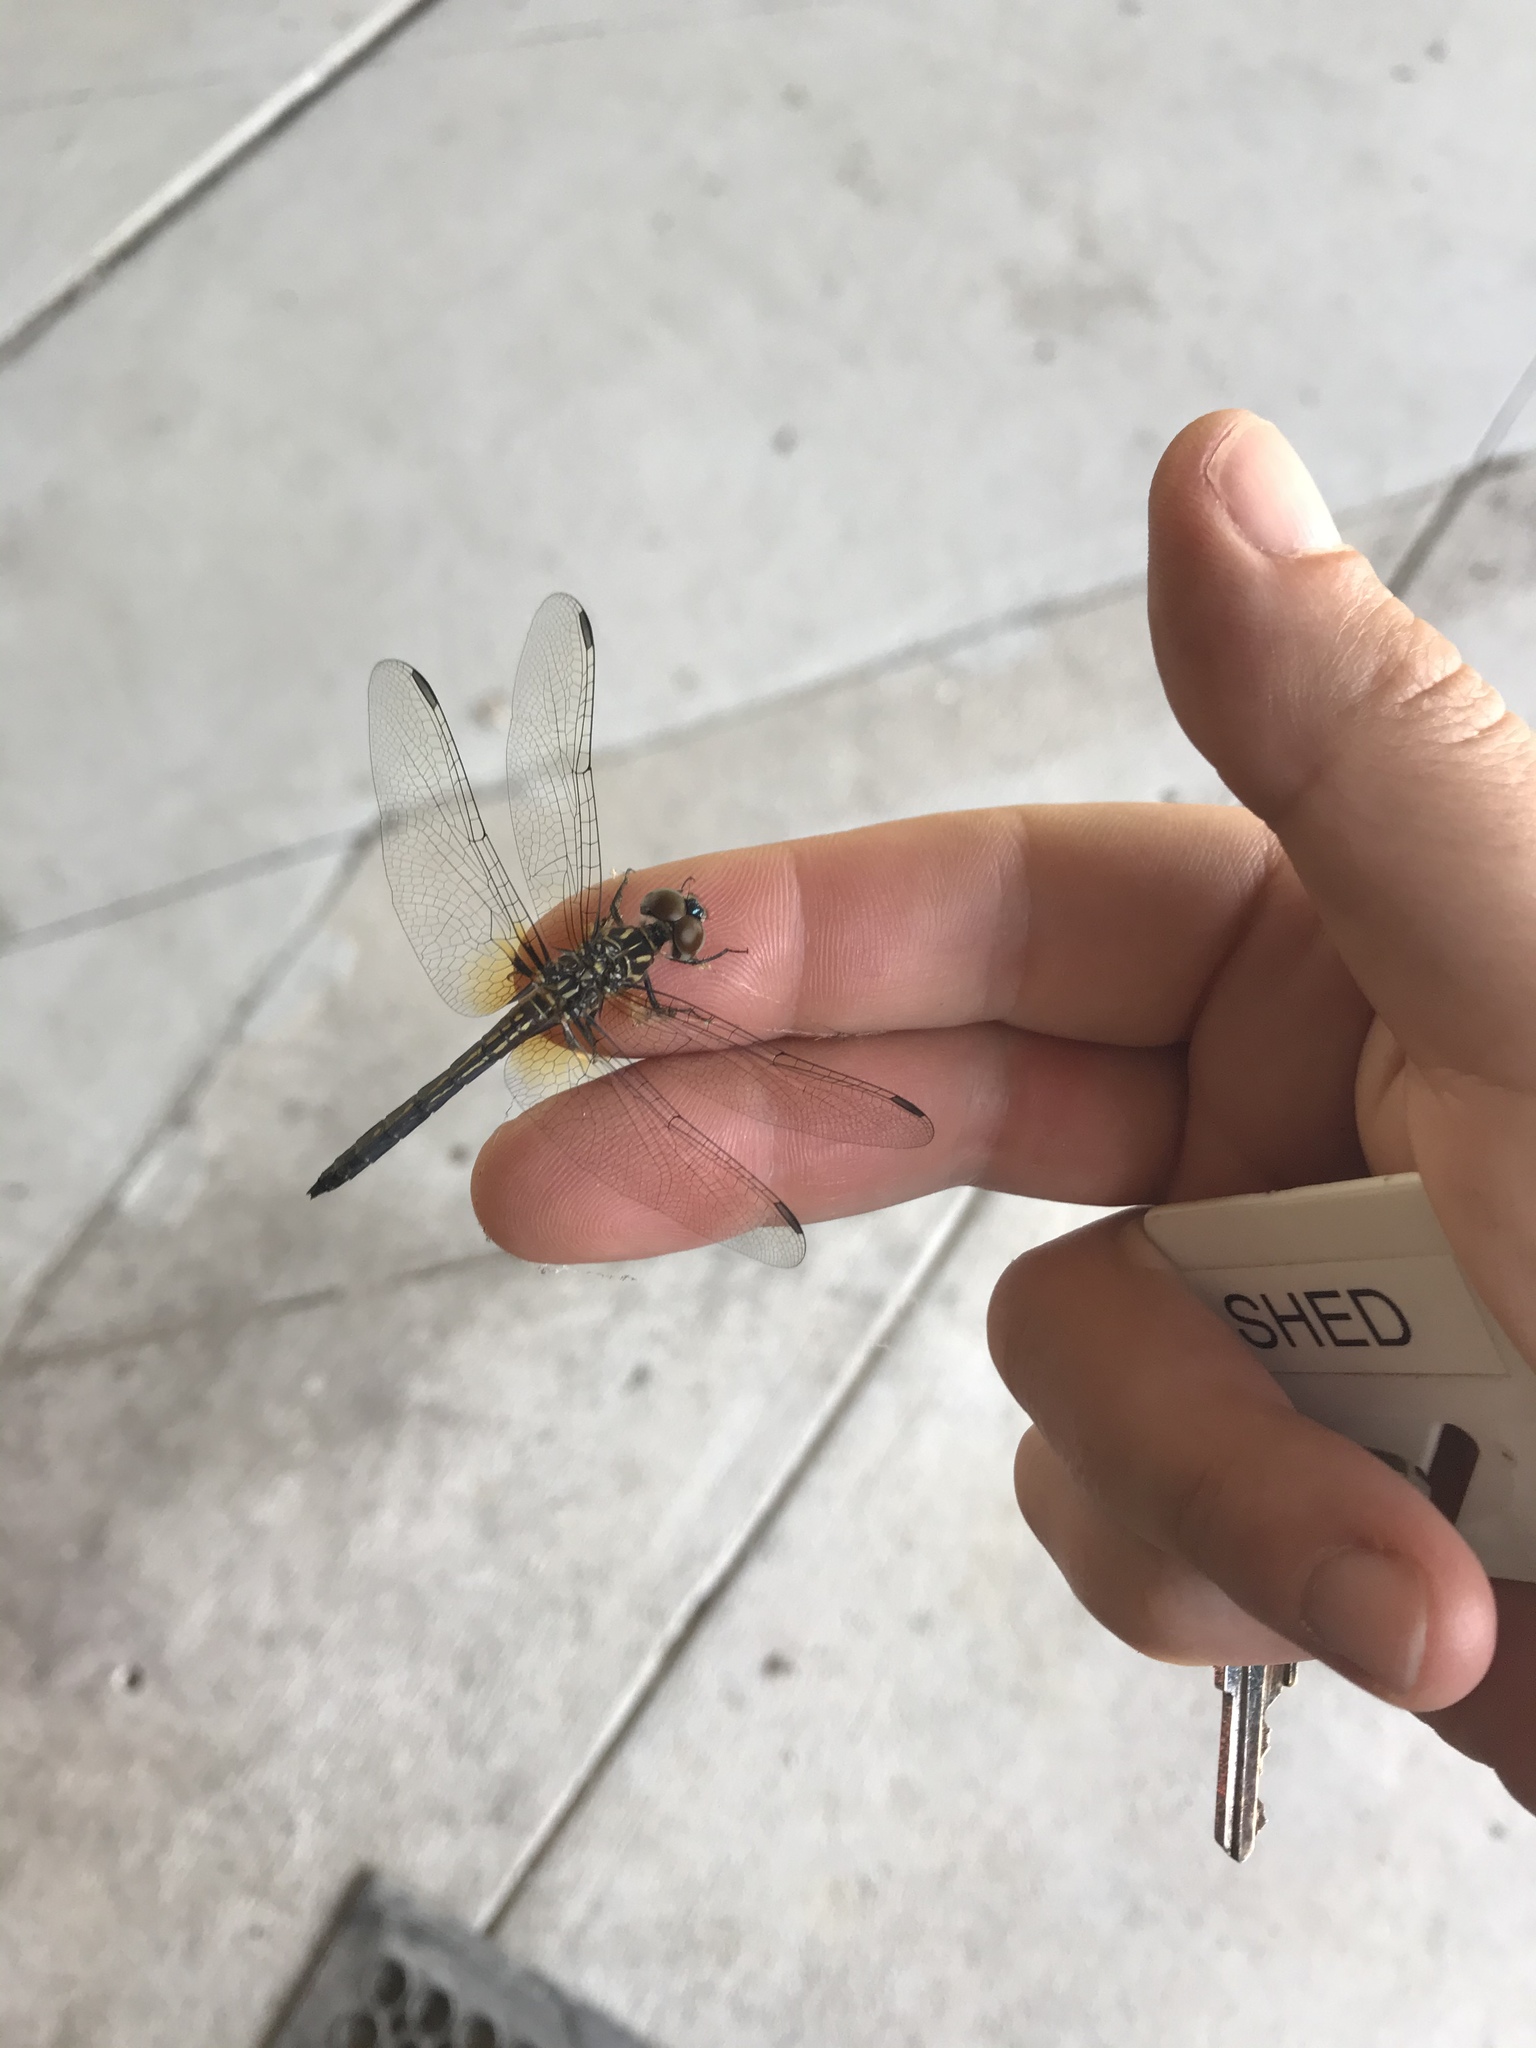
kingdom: Animalia
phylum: Arthropoda
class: Insecta
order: Odonata
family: Libellulidae
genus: Pachydiplax
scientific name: Pachydiplax longipennis
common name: Blue dasher
